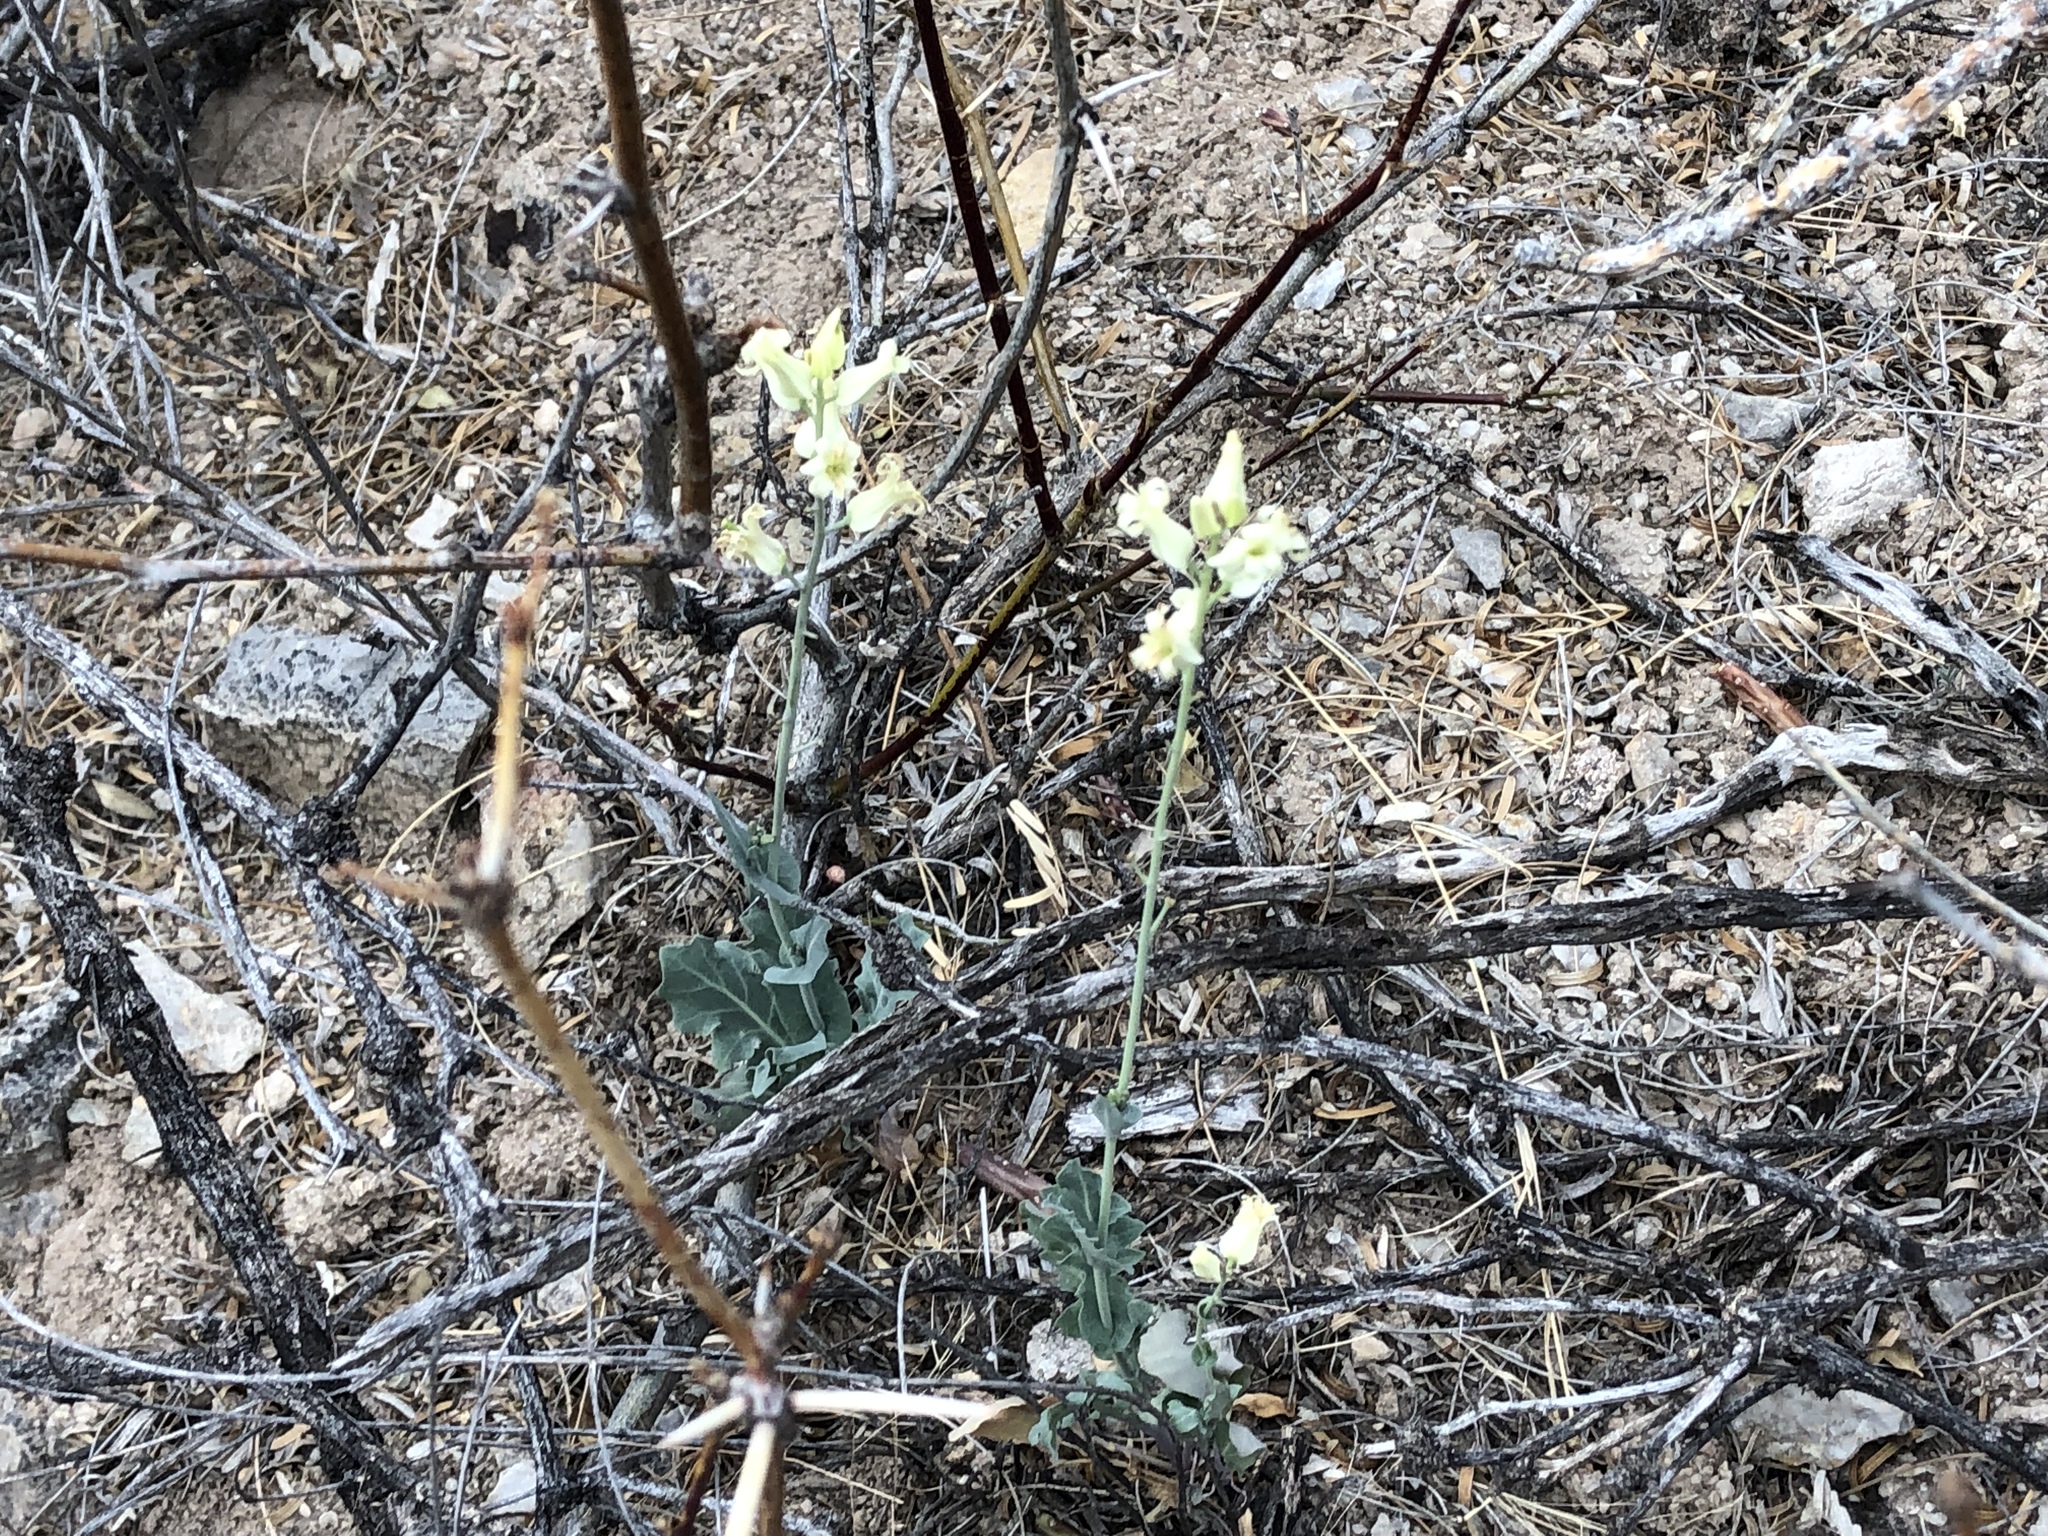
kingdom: Plantae
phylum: Tracheophyta
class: Magnoliopsida
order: Brassicales
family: Brassicaceae
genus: Streptanthus
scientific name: Streptanthus carinatus
